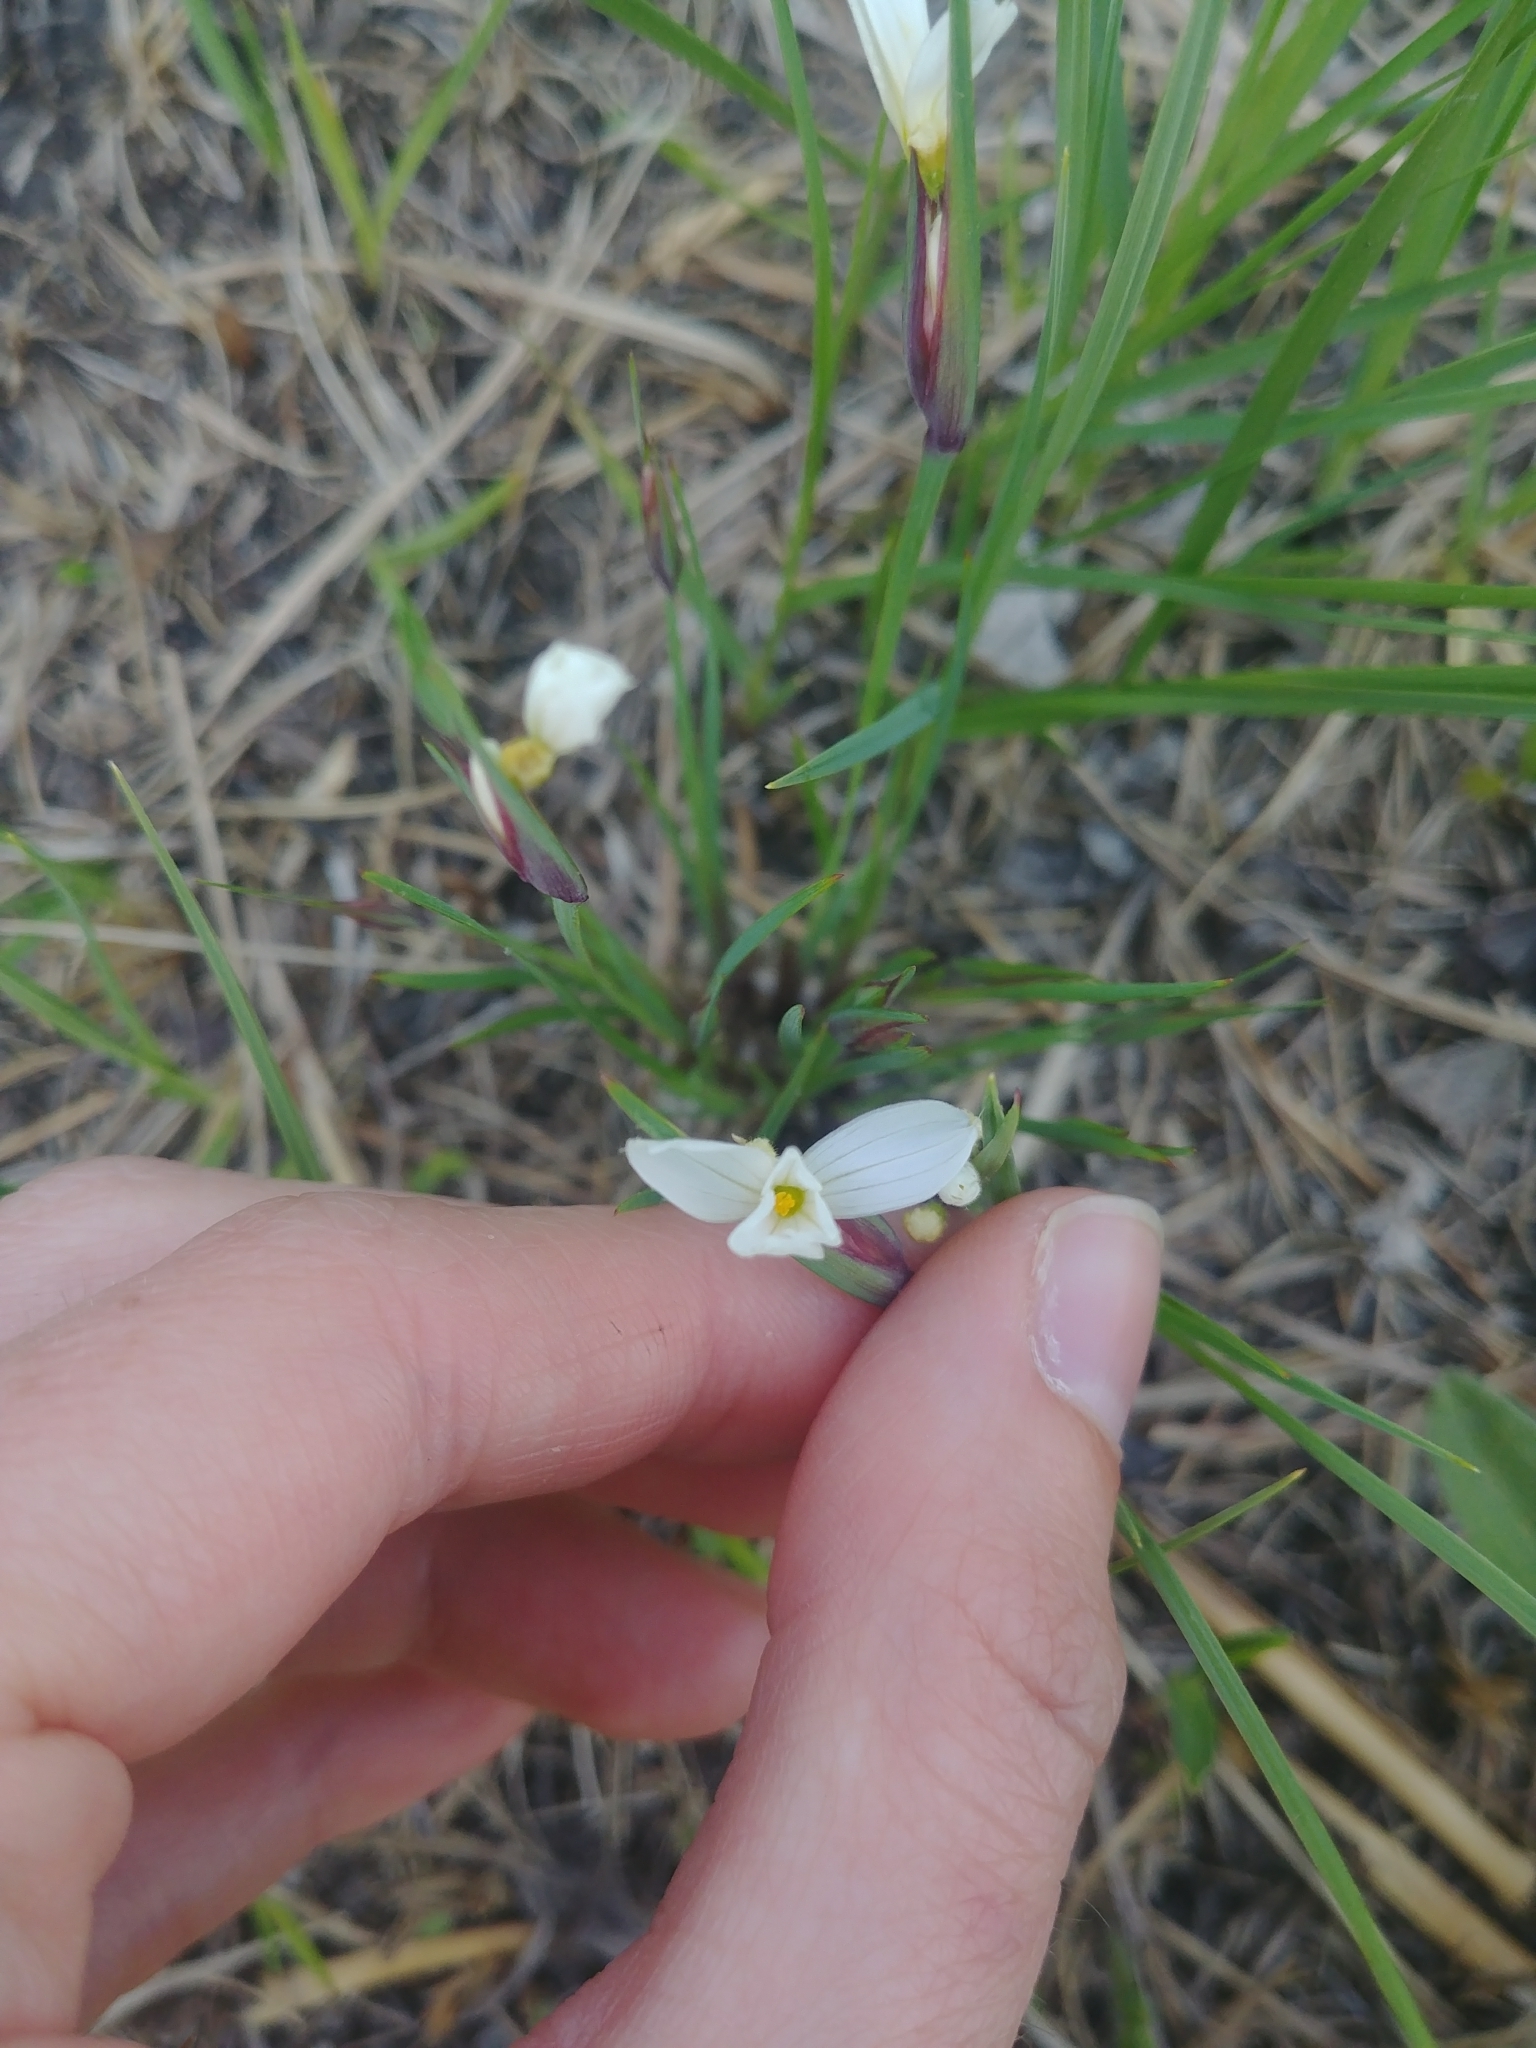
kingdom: Plantae
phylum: Tracheophyta
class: Liliopsida
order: Asparagales
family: Iridaceae
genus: Sisyrinchium
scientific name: Sisyrinchium campestre
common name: Prairie blue-eyed-grass
